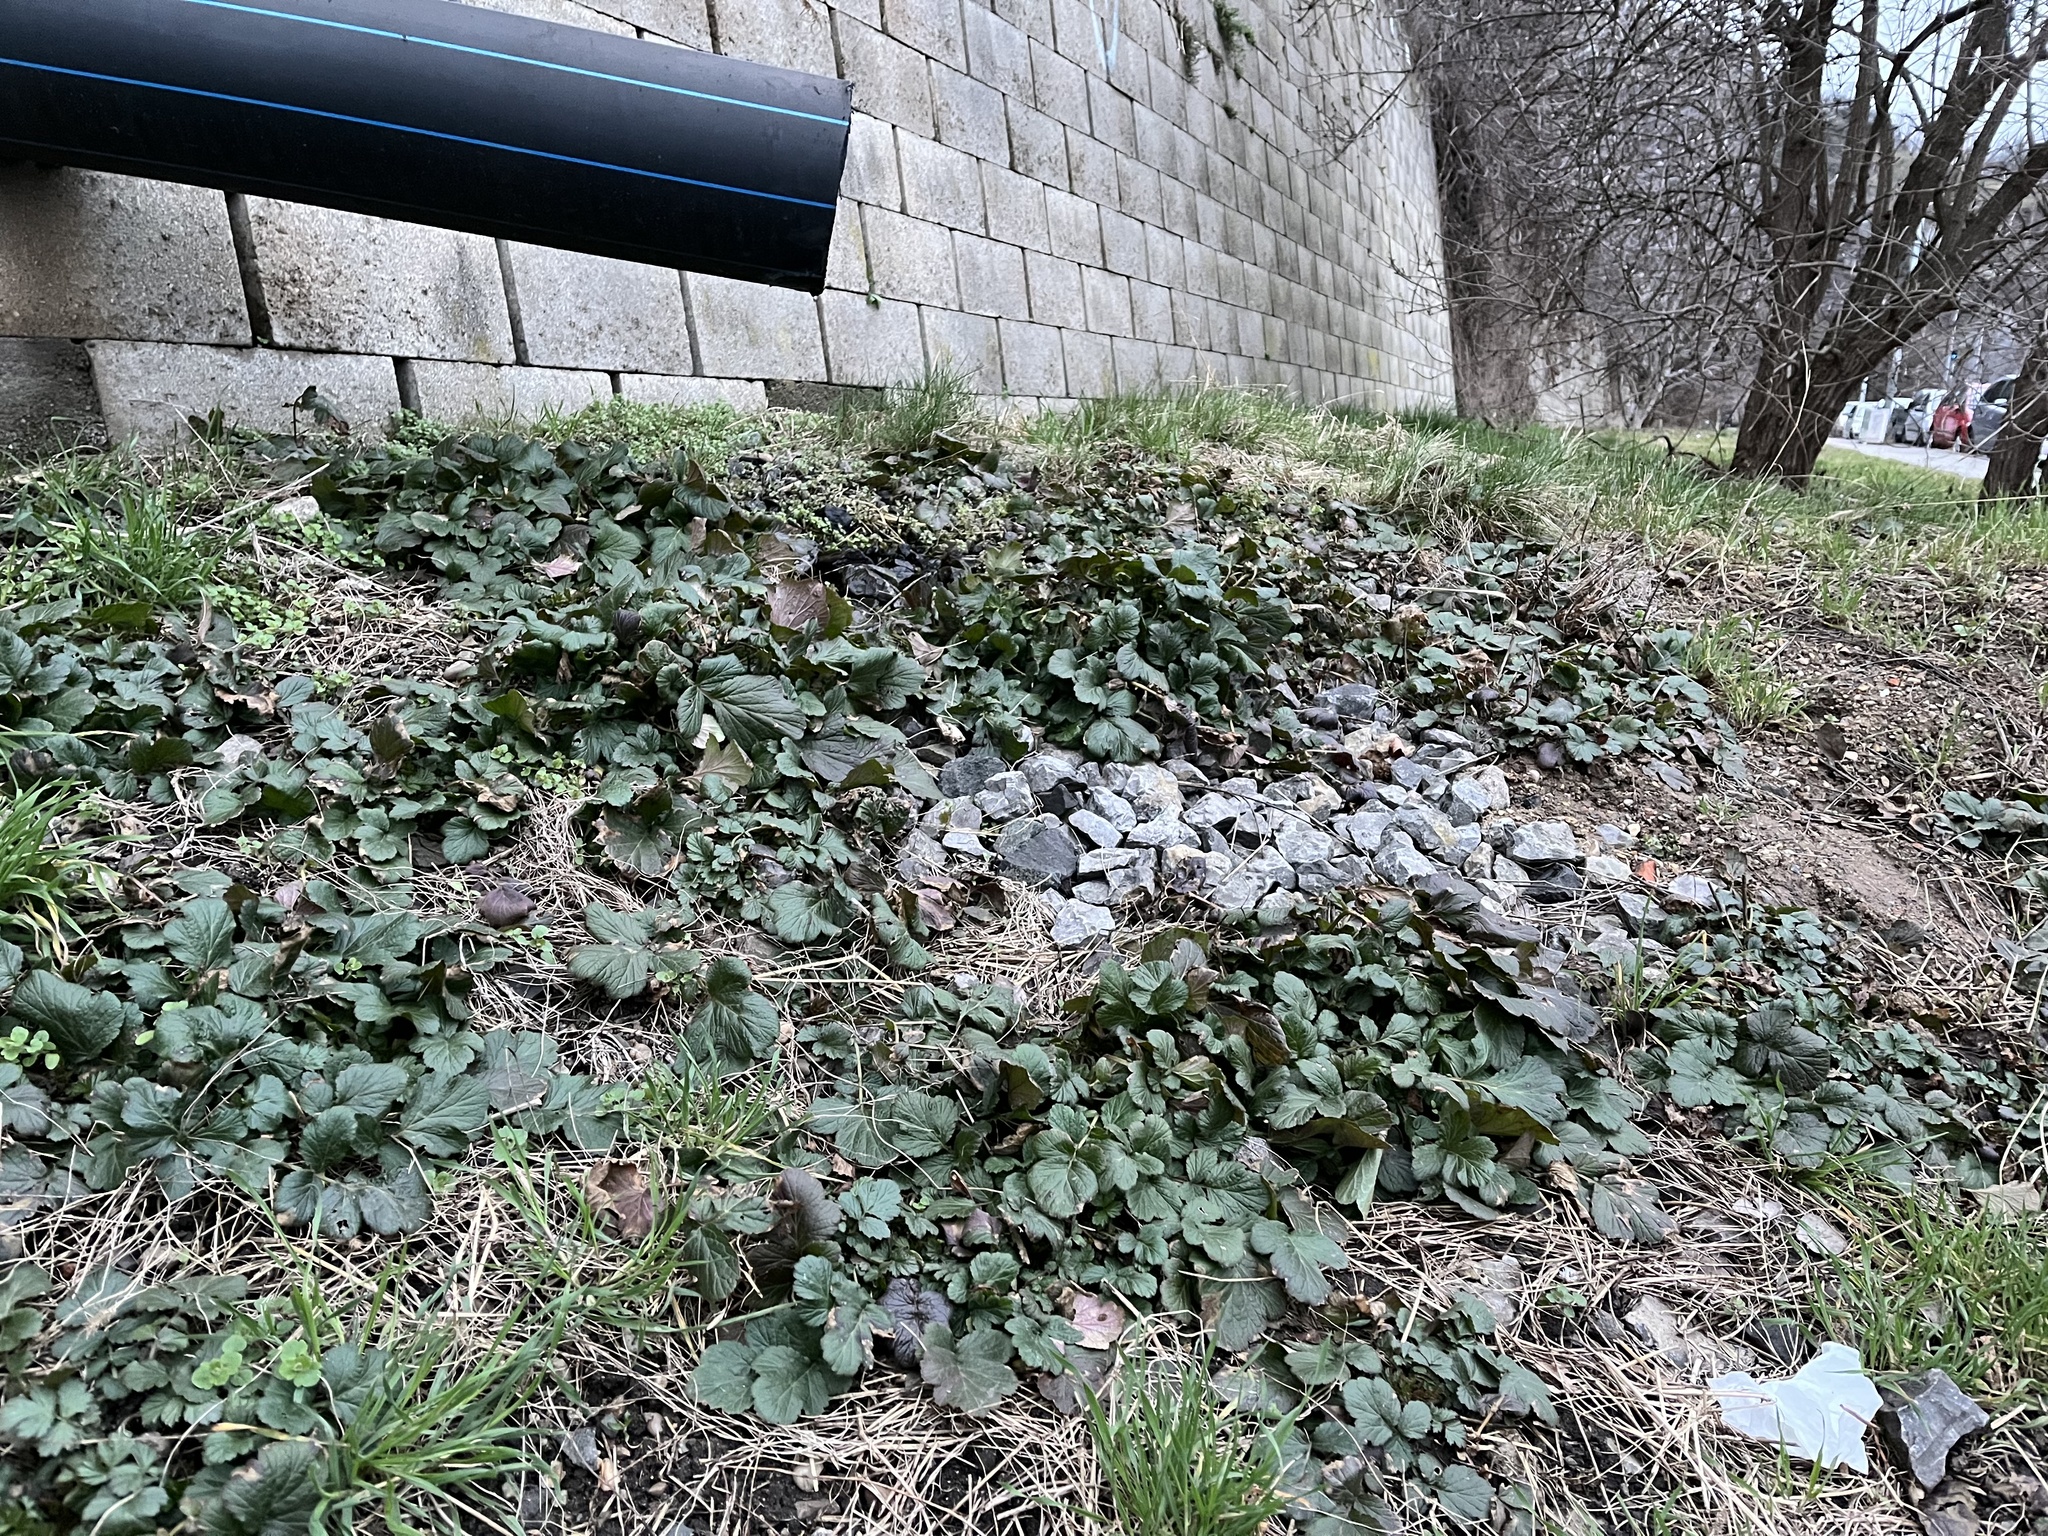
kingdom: Plantae
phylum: Tracheophyta
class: Magnoliopsida
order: Rosales
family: Rosaceae
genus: Geum
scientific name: Geum urbanum
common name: Wood avens
